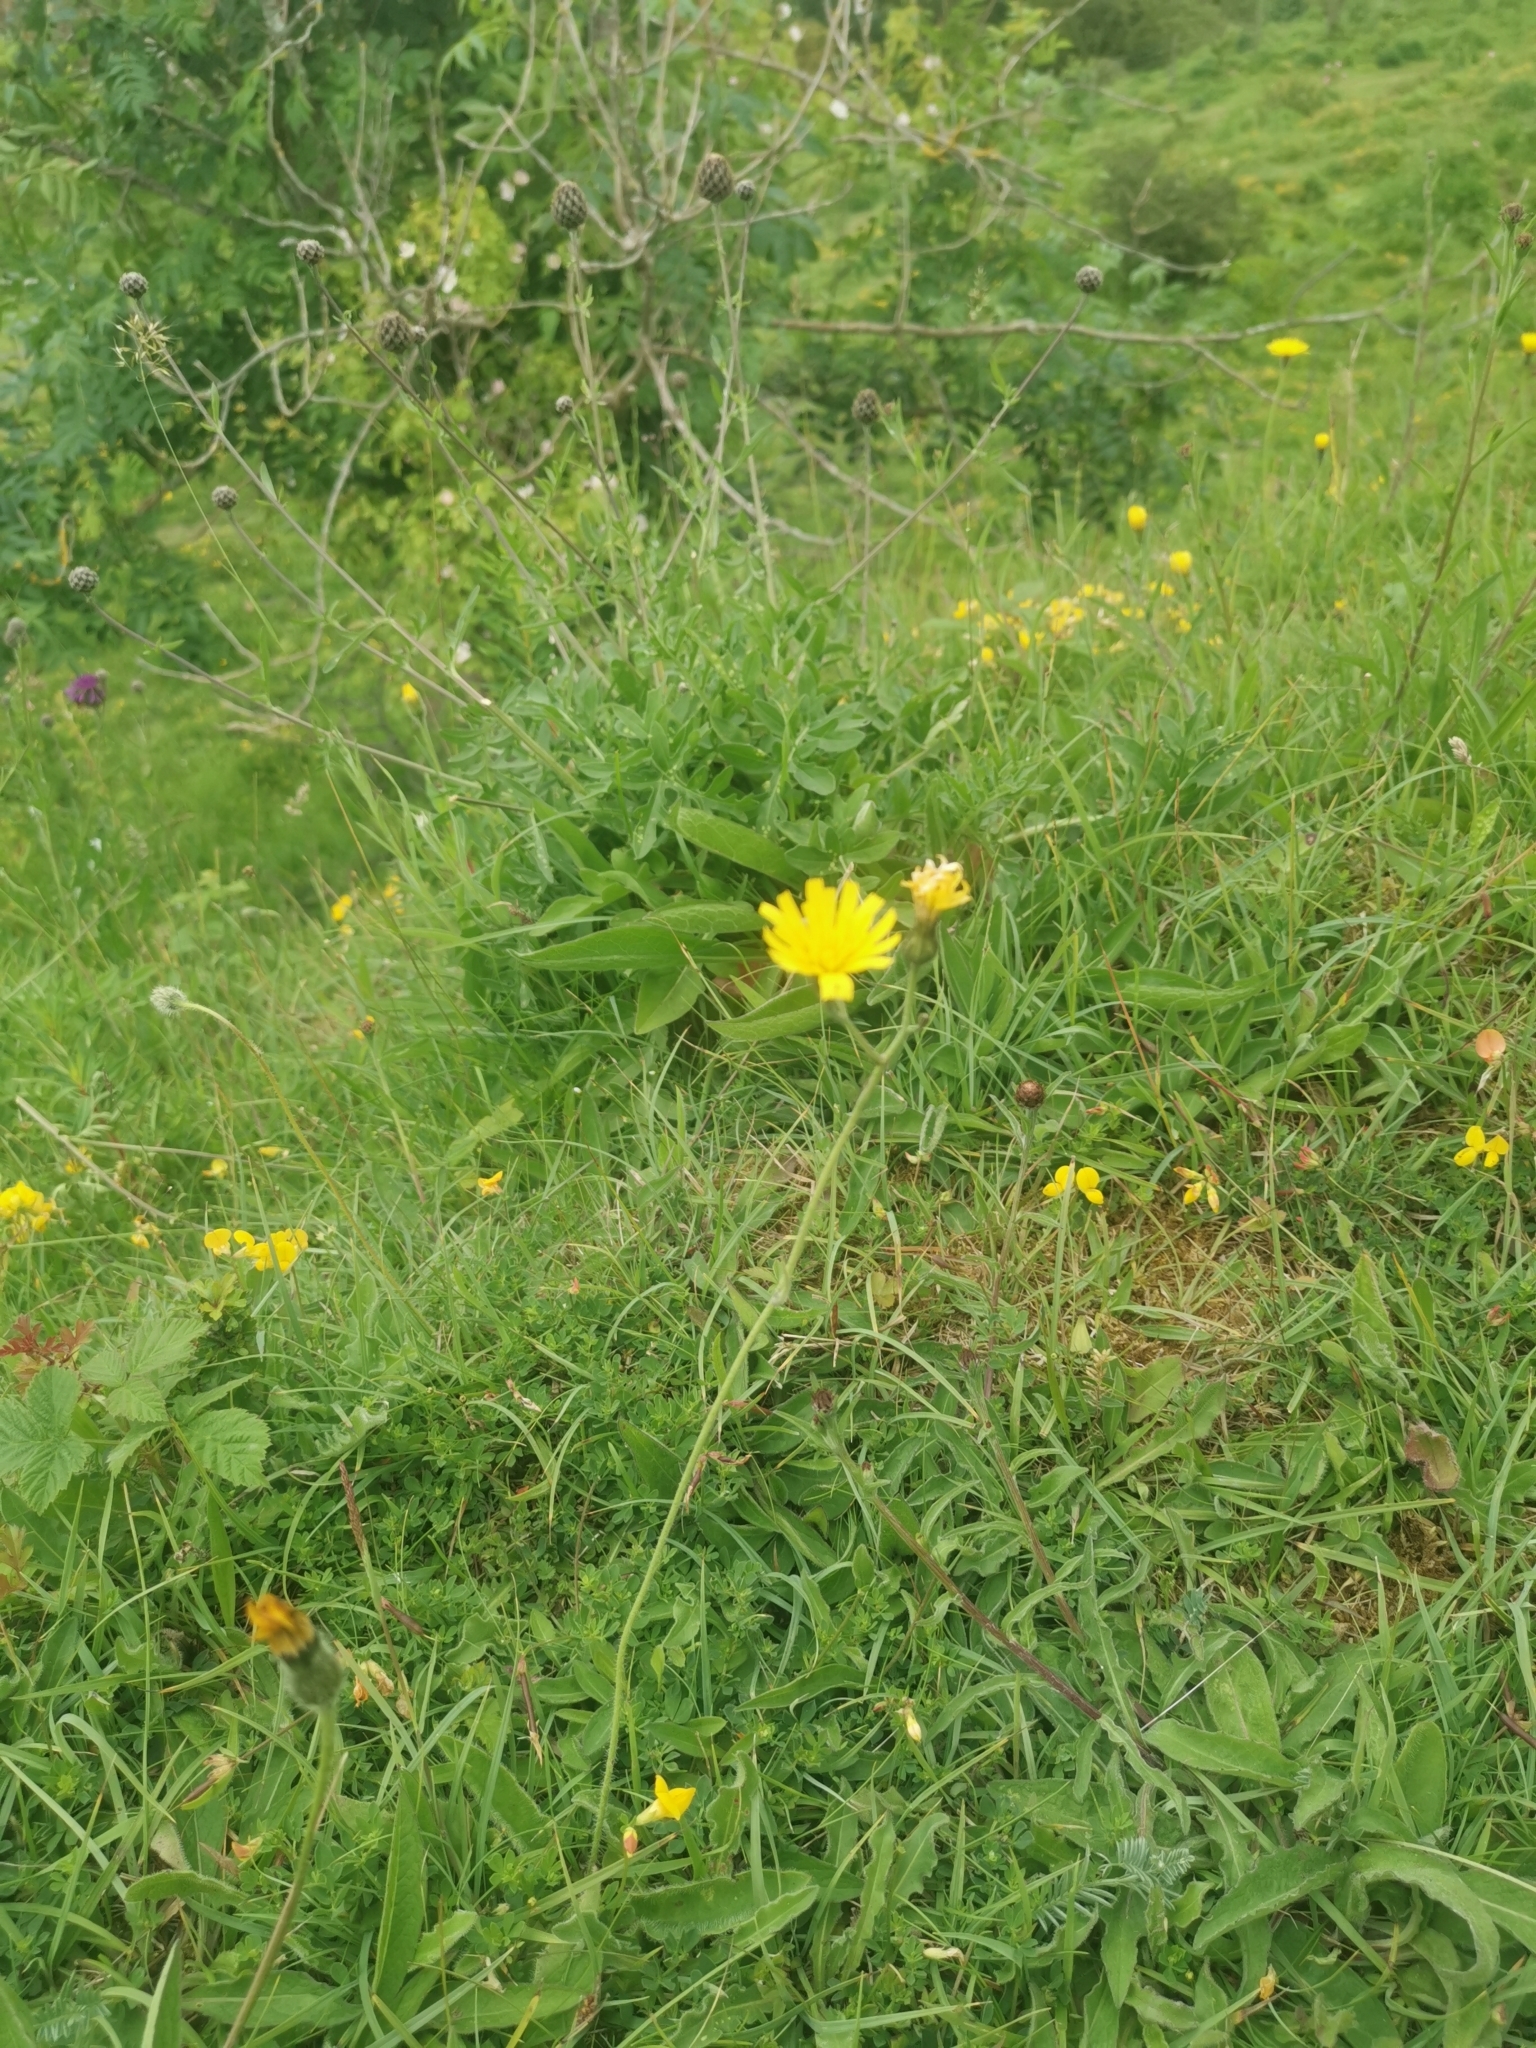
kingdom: Plantae
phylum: Tracheophyta
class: Magnoliopsida
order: Asterales
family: Asteraceae
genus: Hypochaeris
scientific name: Hypochaeris radicata
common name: Flatweed
